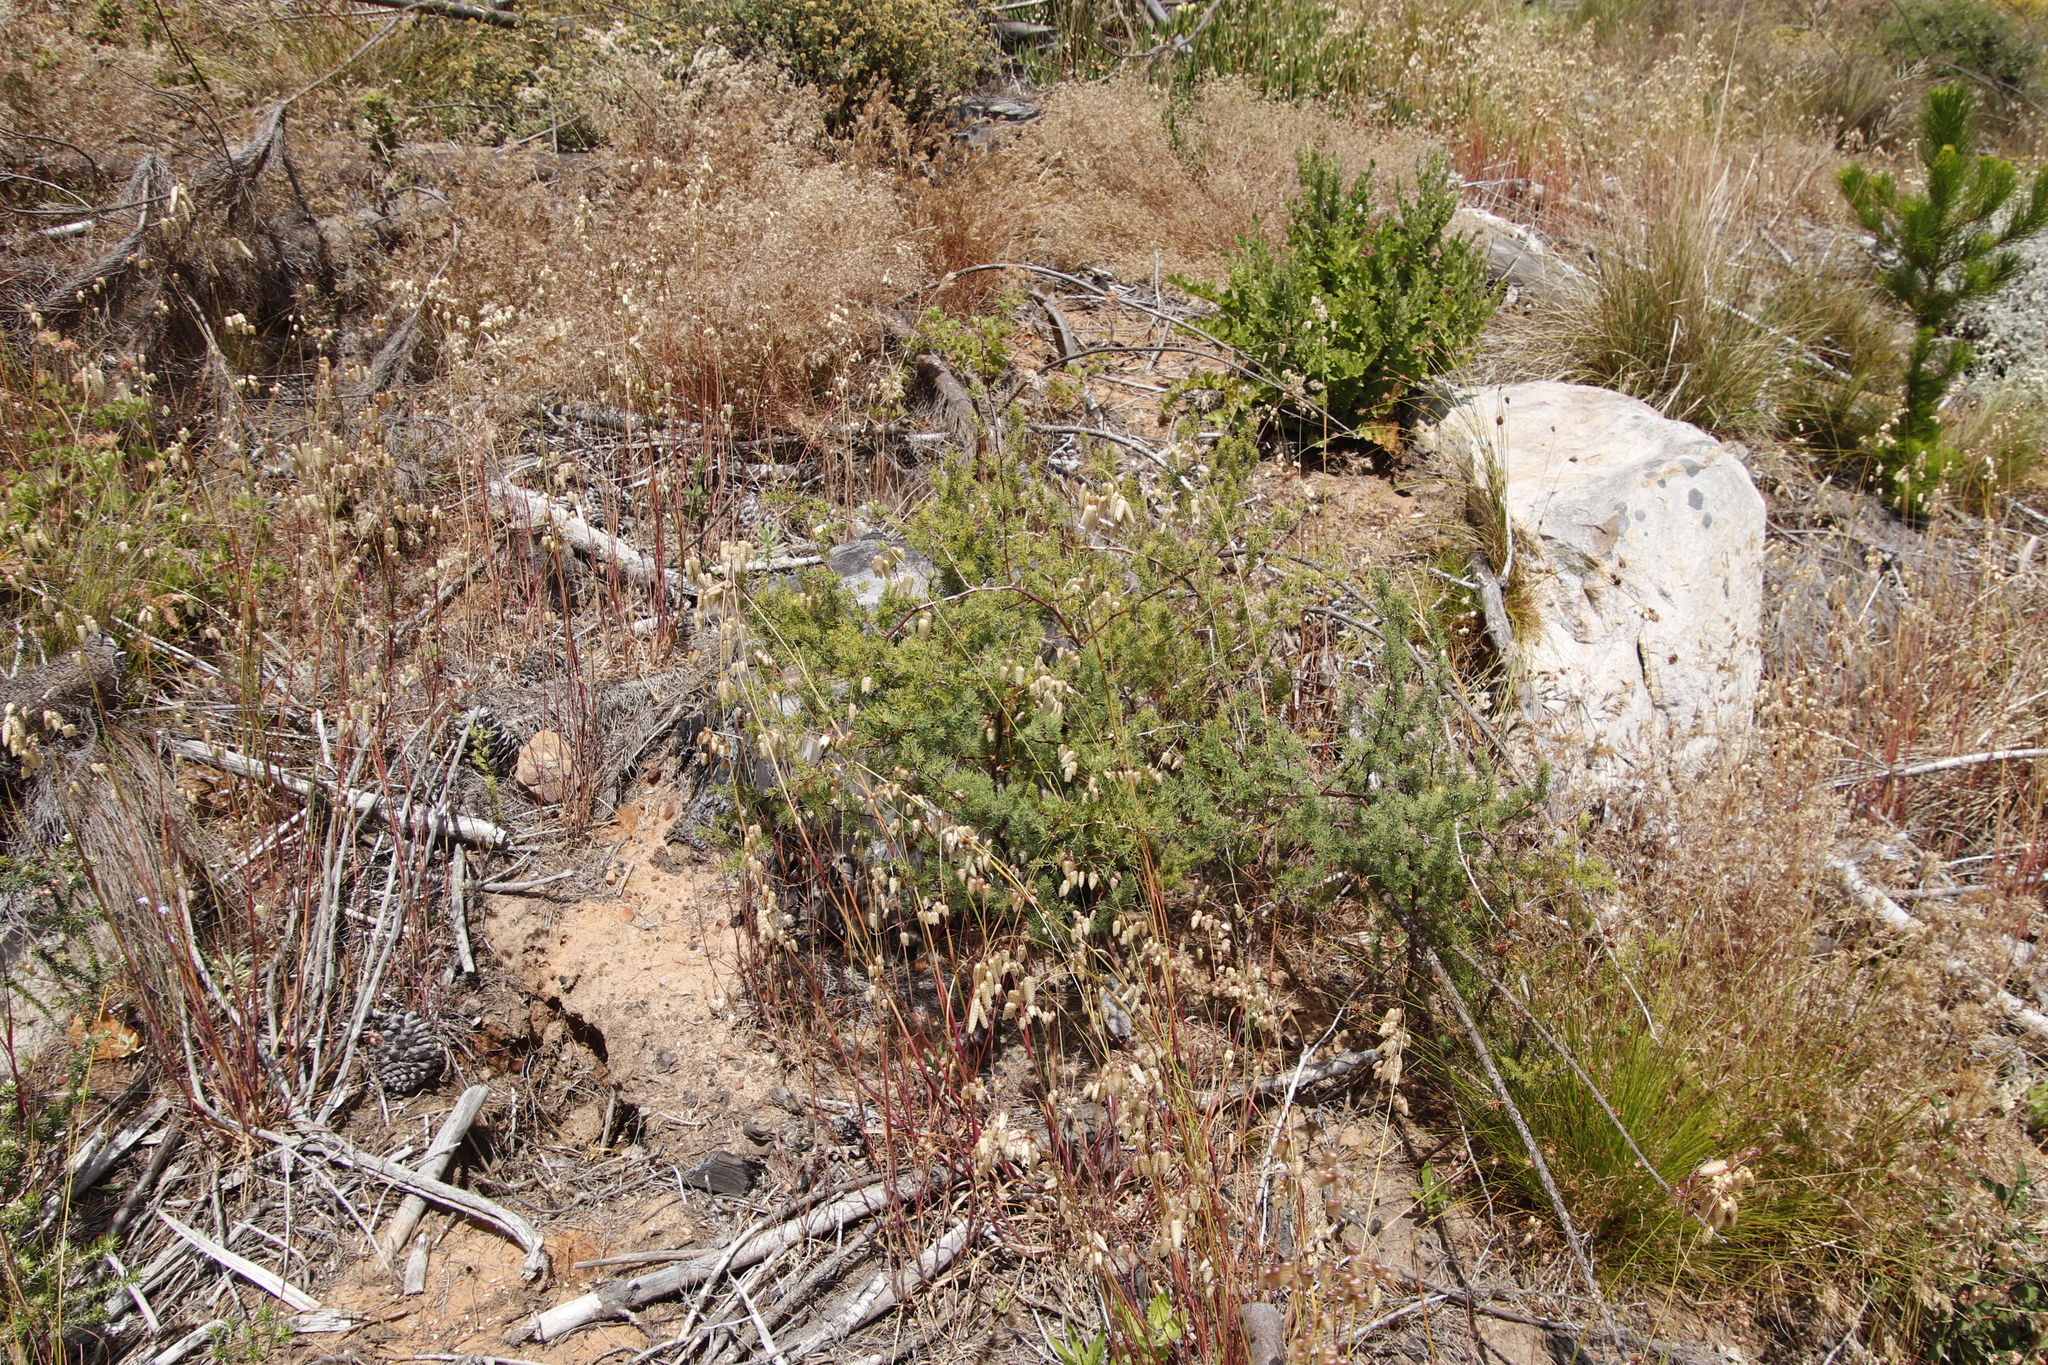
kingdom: Plantae
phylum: Tracheophyta
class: Liliopsida
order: Asparagales
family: Asparagaceae
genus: Asparagus
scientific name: Asparagus rubicundus
